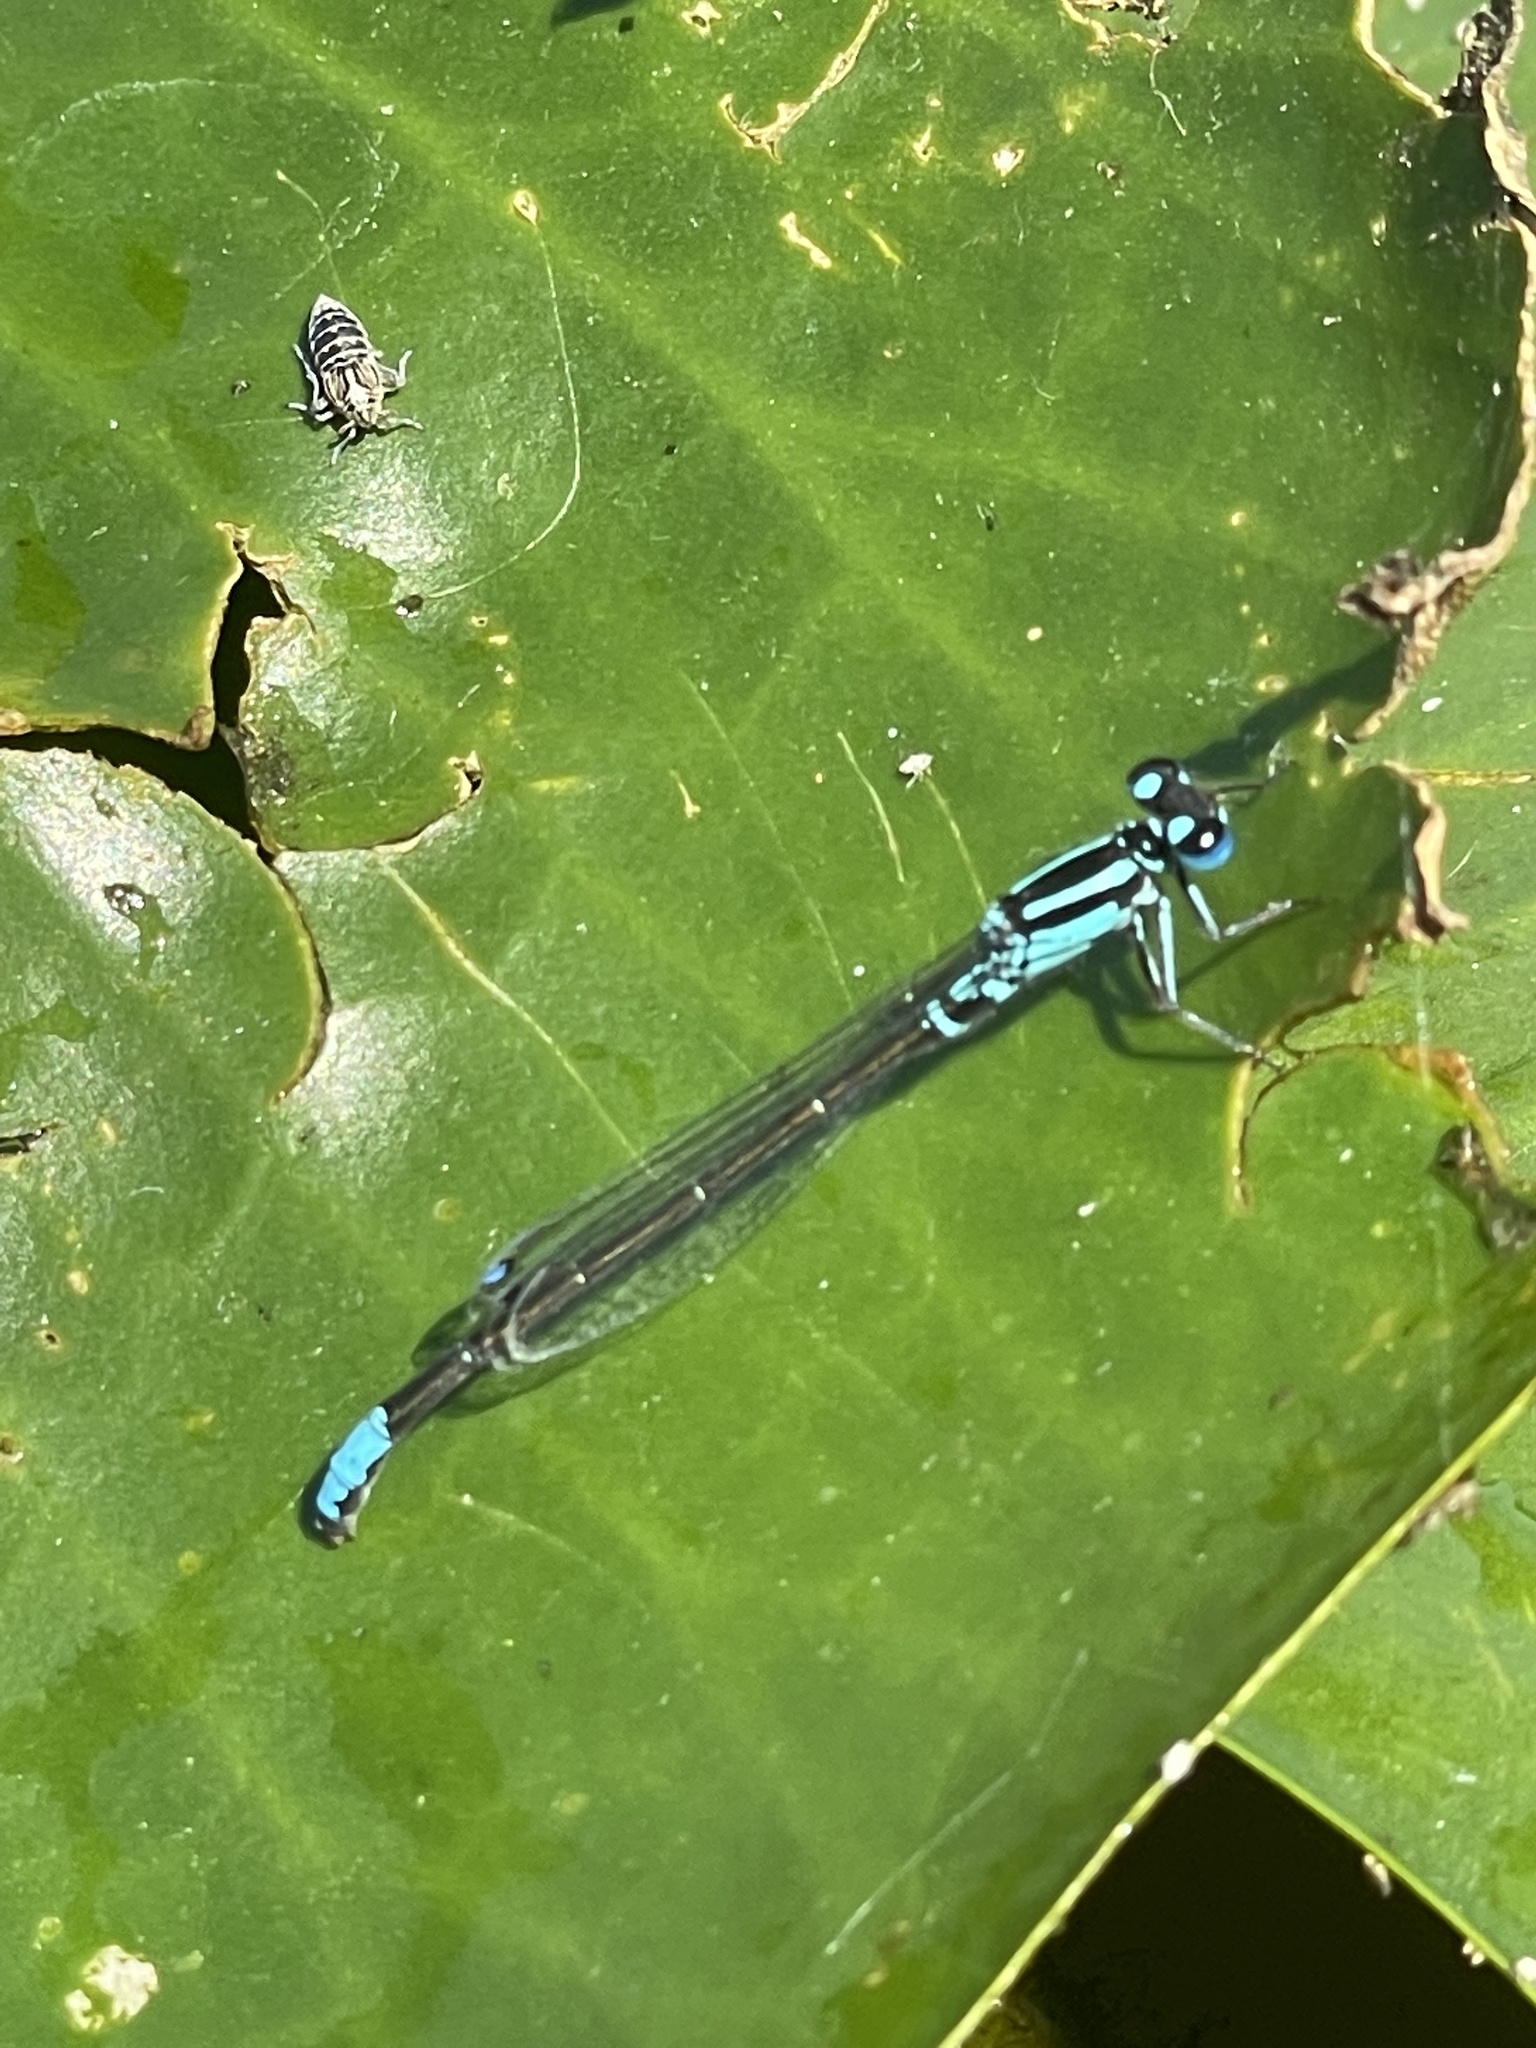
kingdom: Animalia
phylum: Arthropoda
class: Insecta
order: Odonata
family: Coenagrionidae
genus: Ischnura
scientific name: Ischnura kellicotti
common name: Lilypad forktail
